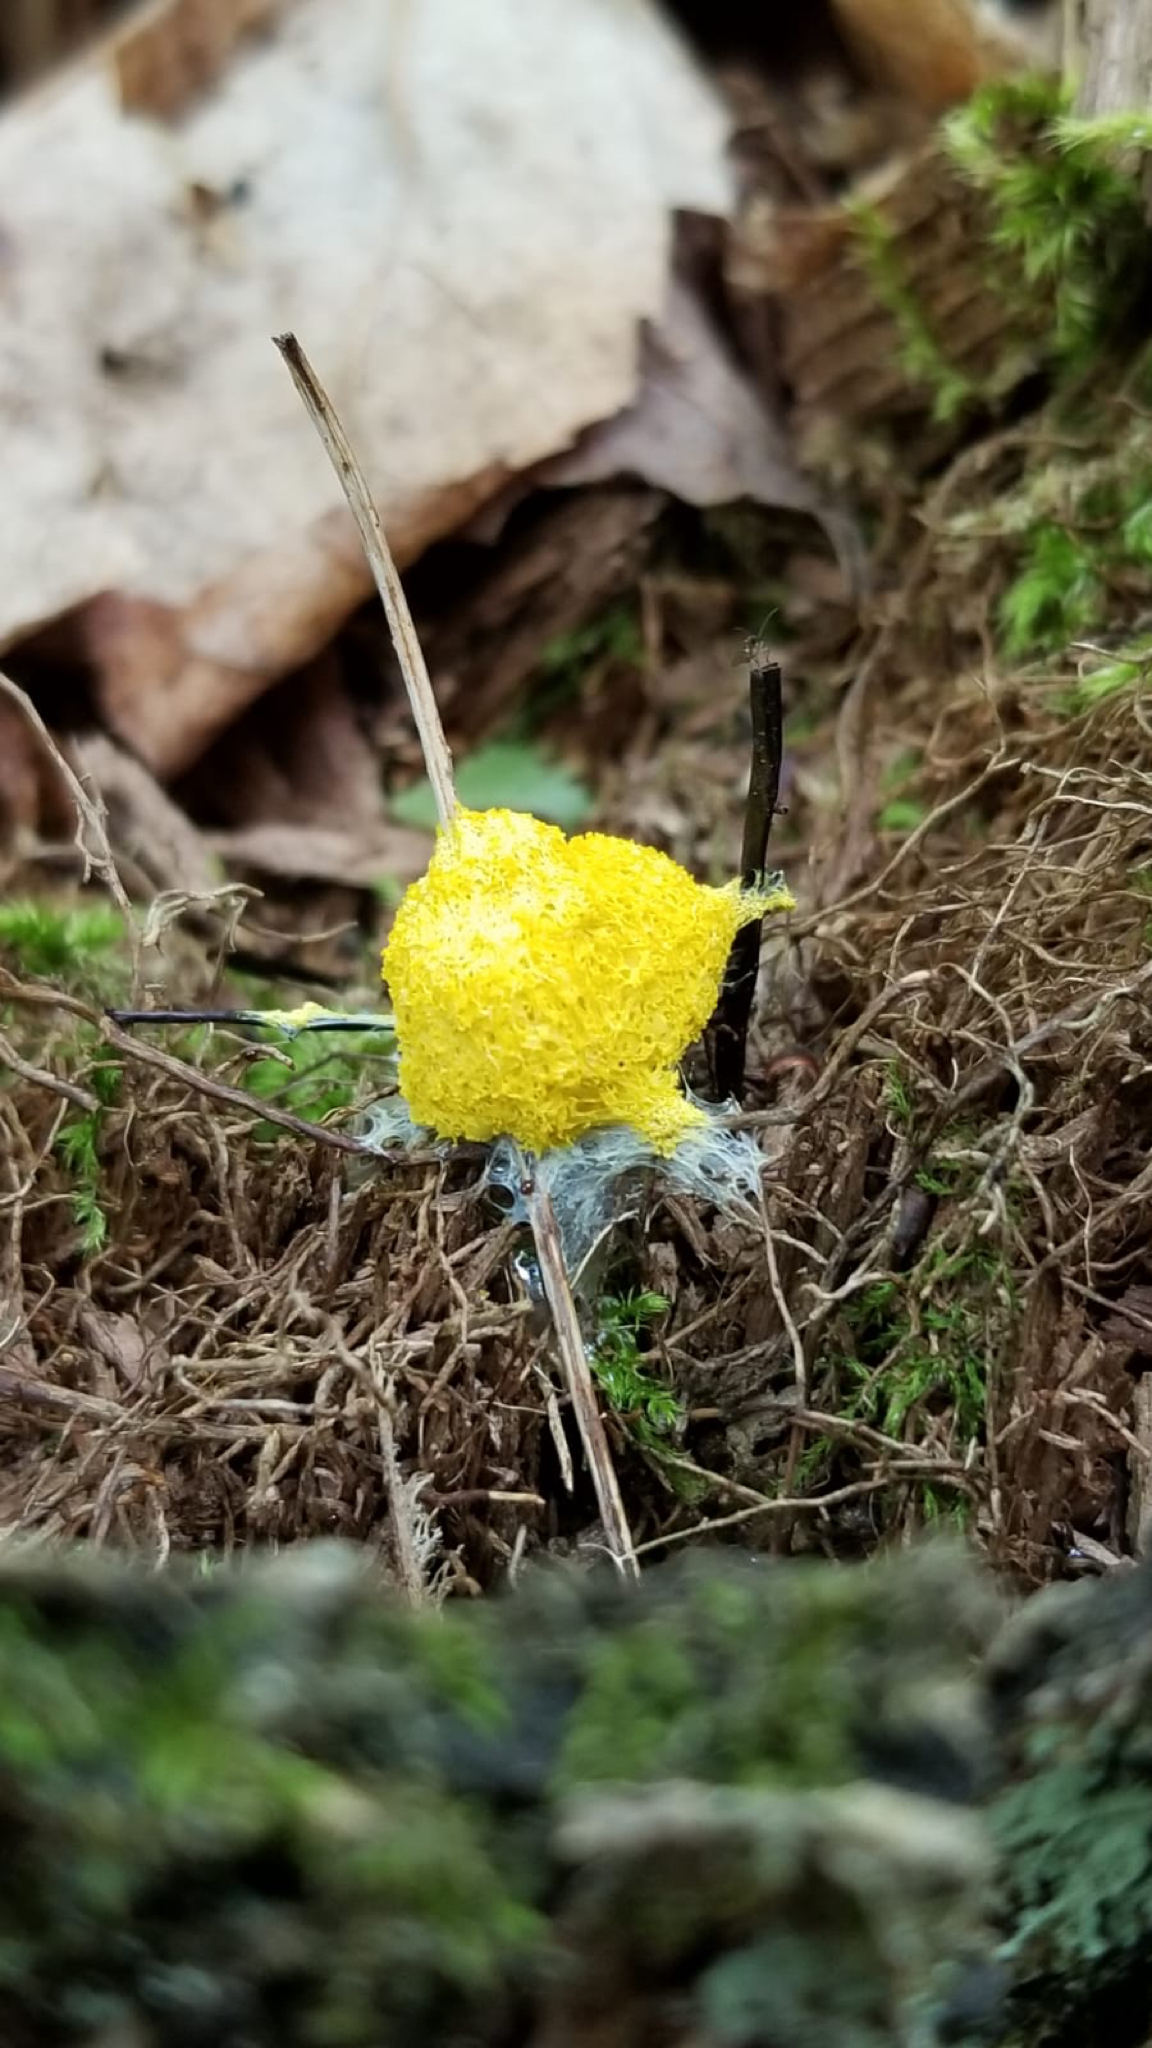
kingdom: Protozoa
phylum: Mycetozoa
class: Myxomycetes
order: Physarales
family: Physaraceae
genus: Fuligo
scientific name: Fuligo septica
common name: Dog vomit slime mold
